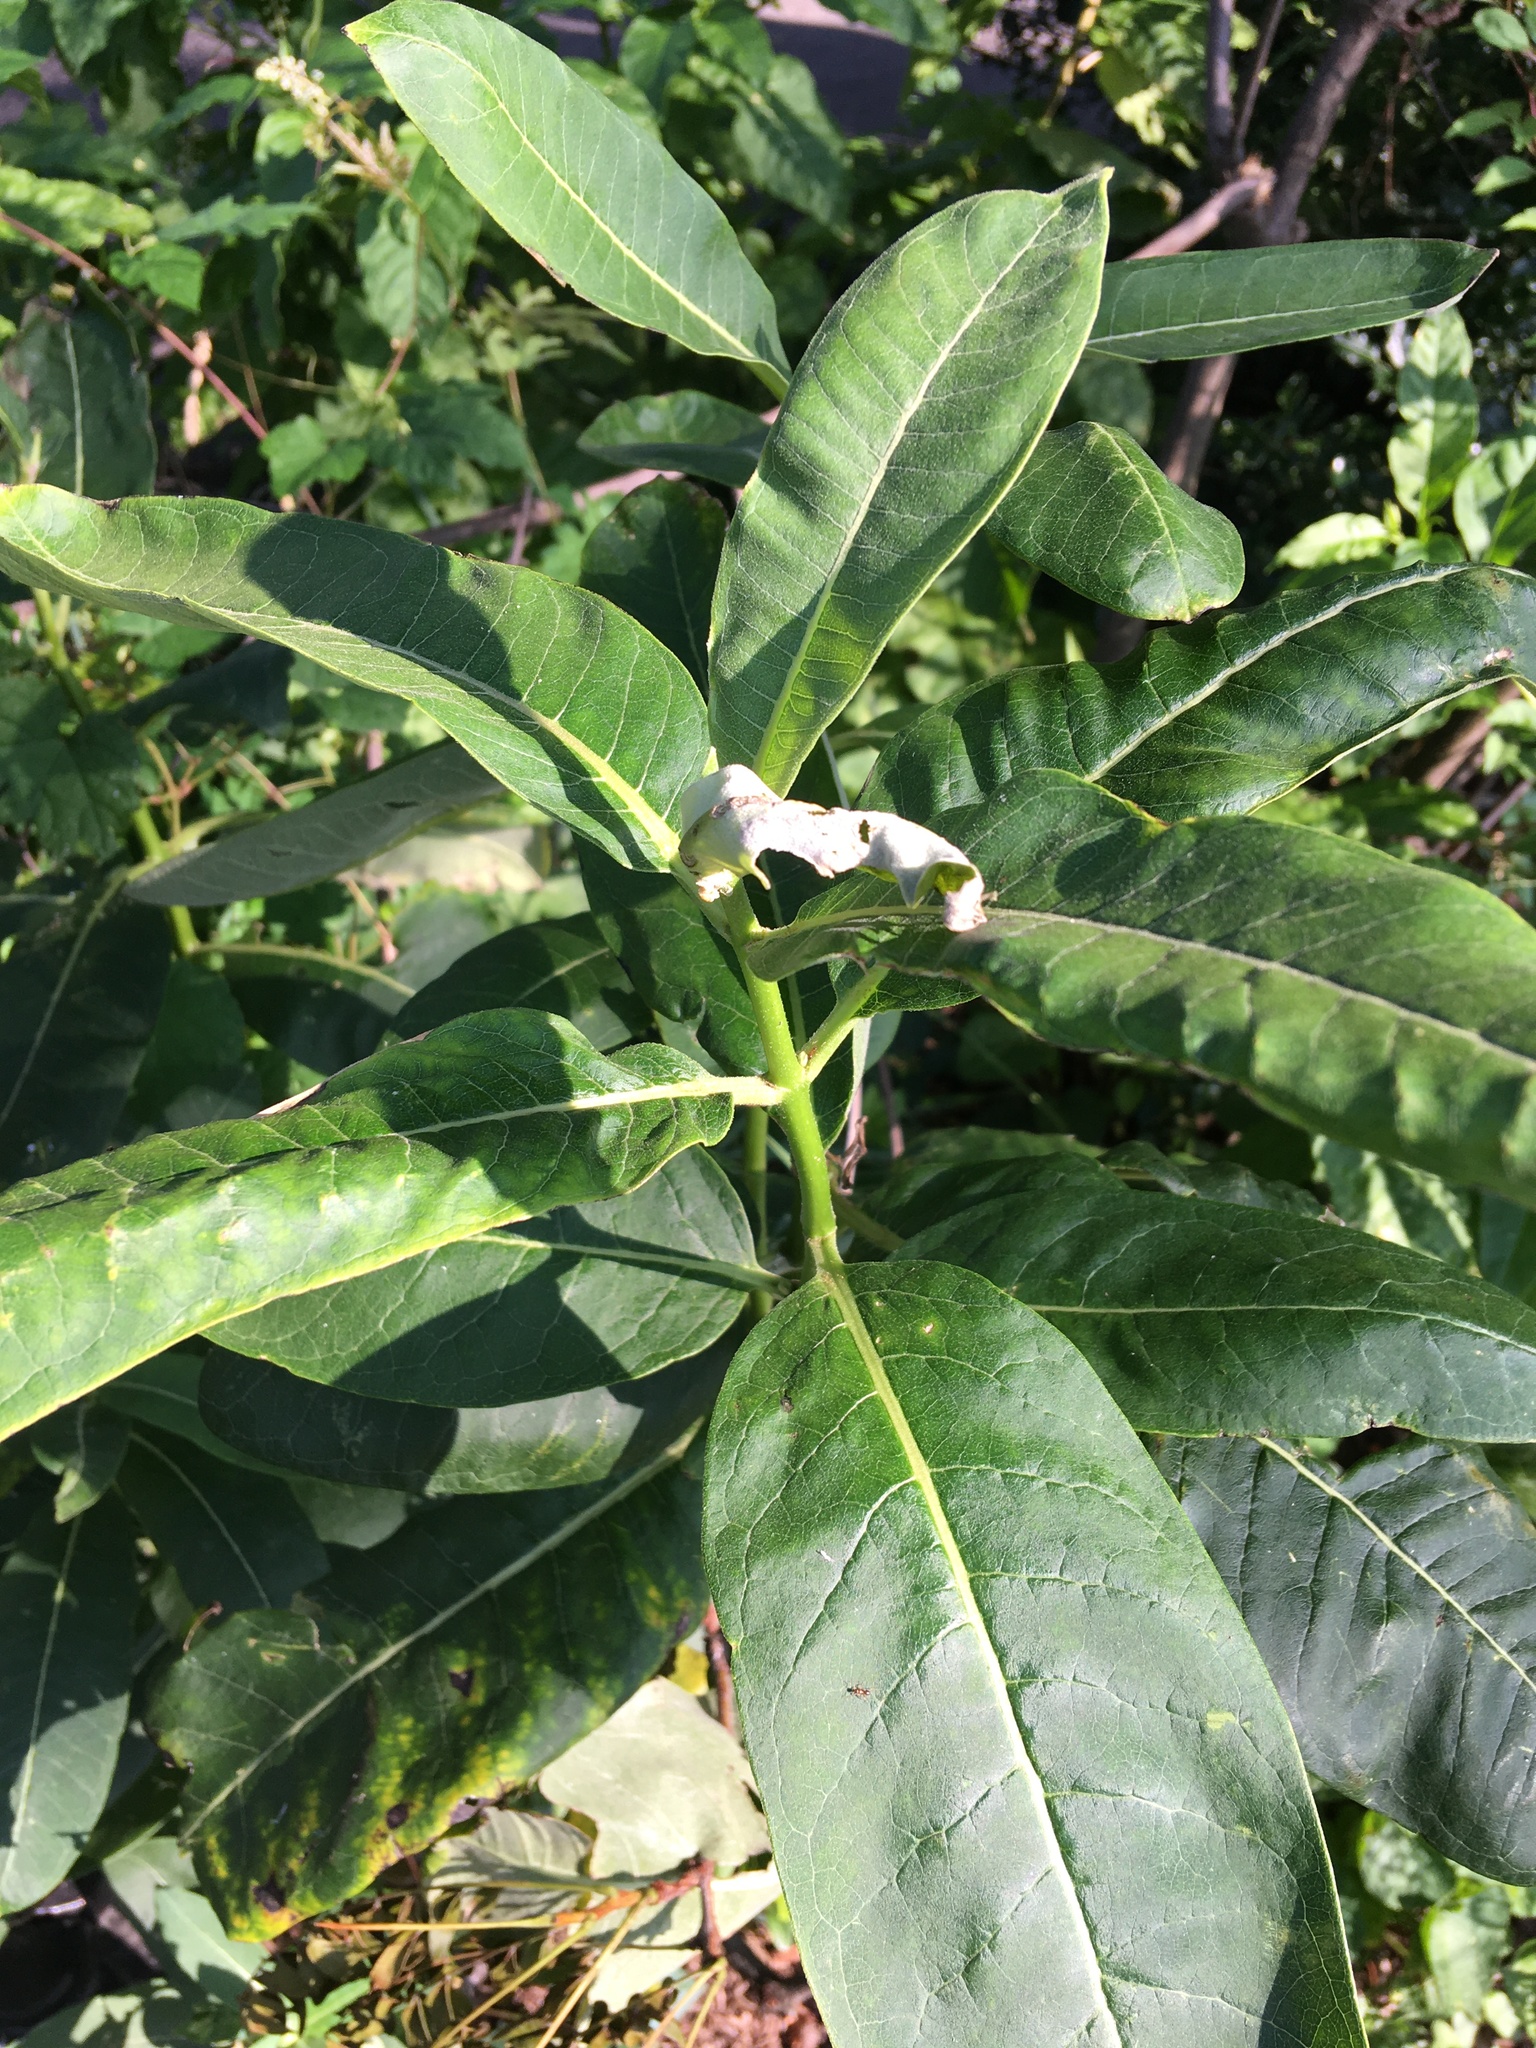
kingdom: Plantae
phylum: Tracheophyta
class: Magnoliopsida
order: Gentianales
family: Apocynaceae
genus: Asclepias
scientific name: Asclepias syriaca
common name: Common milkweed
